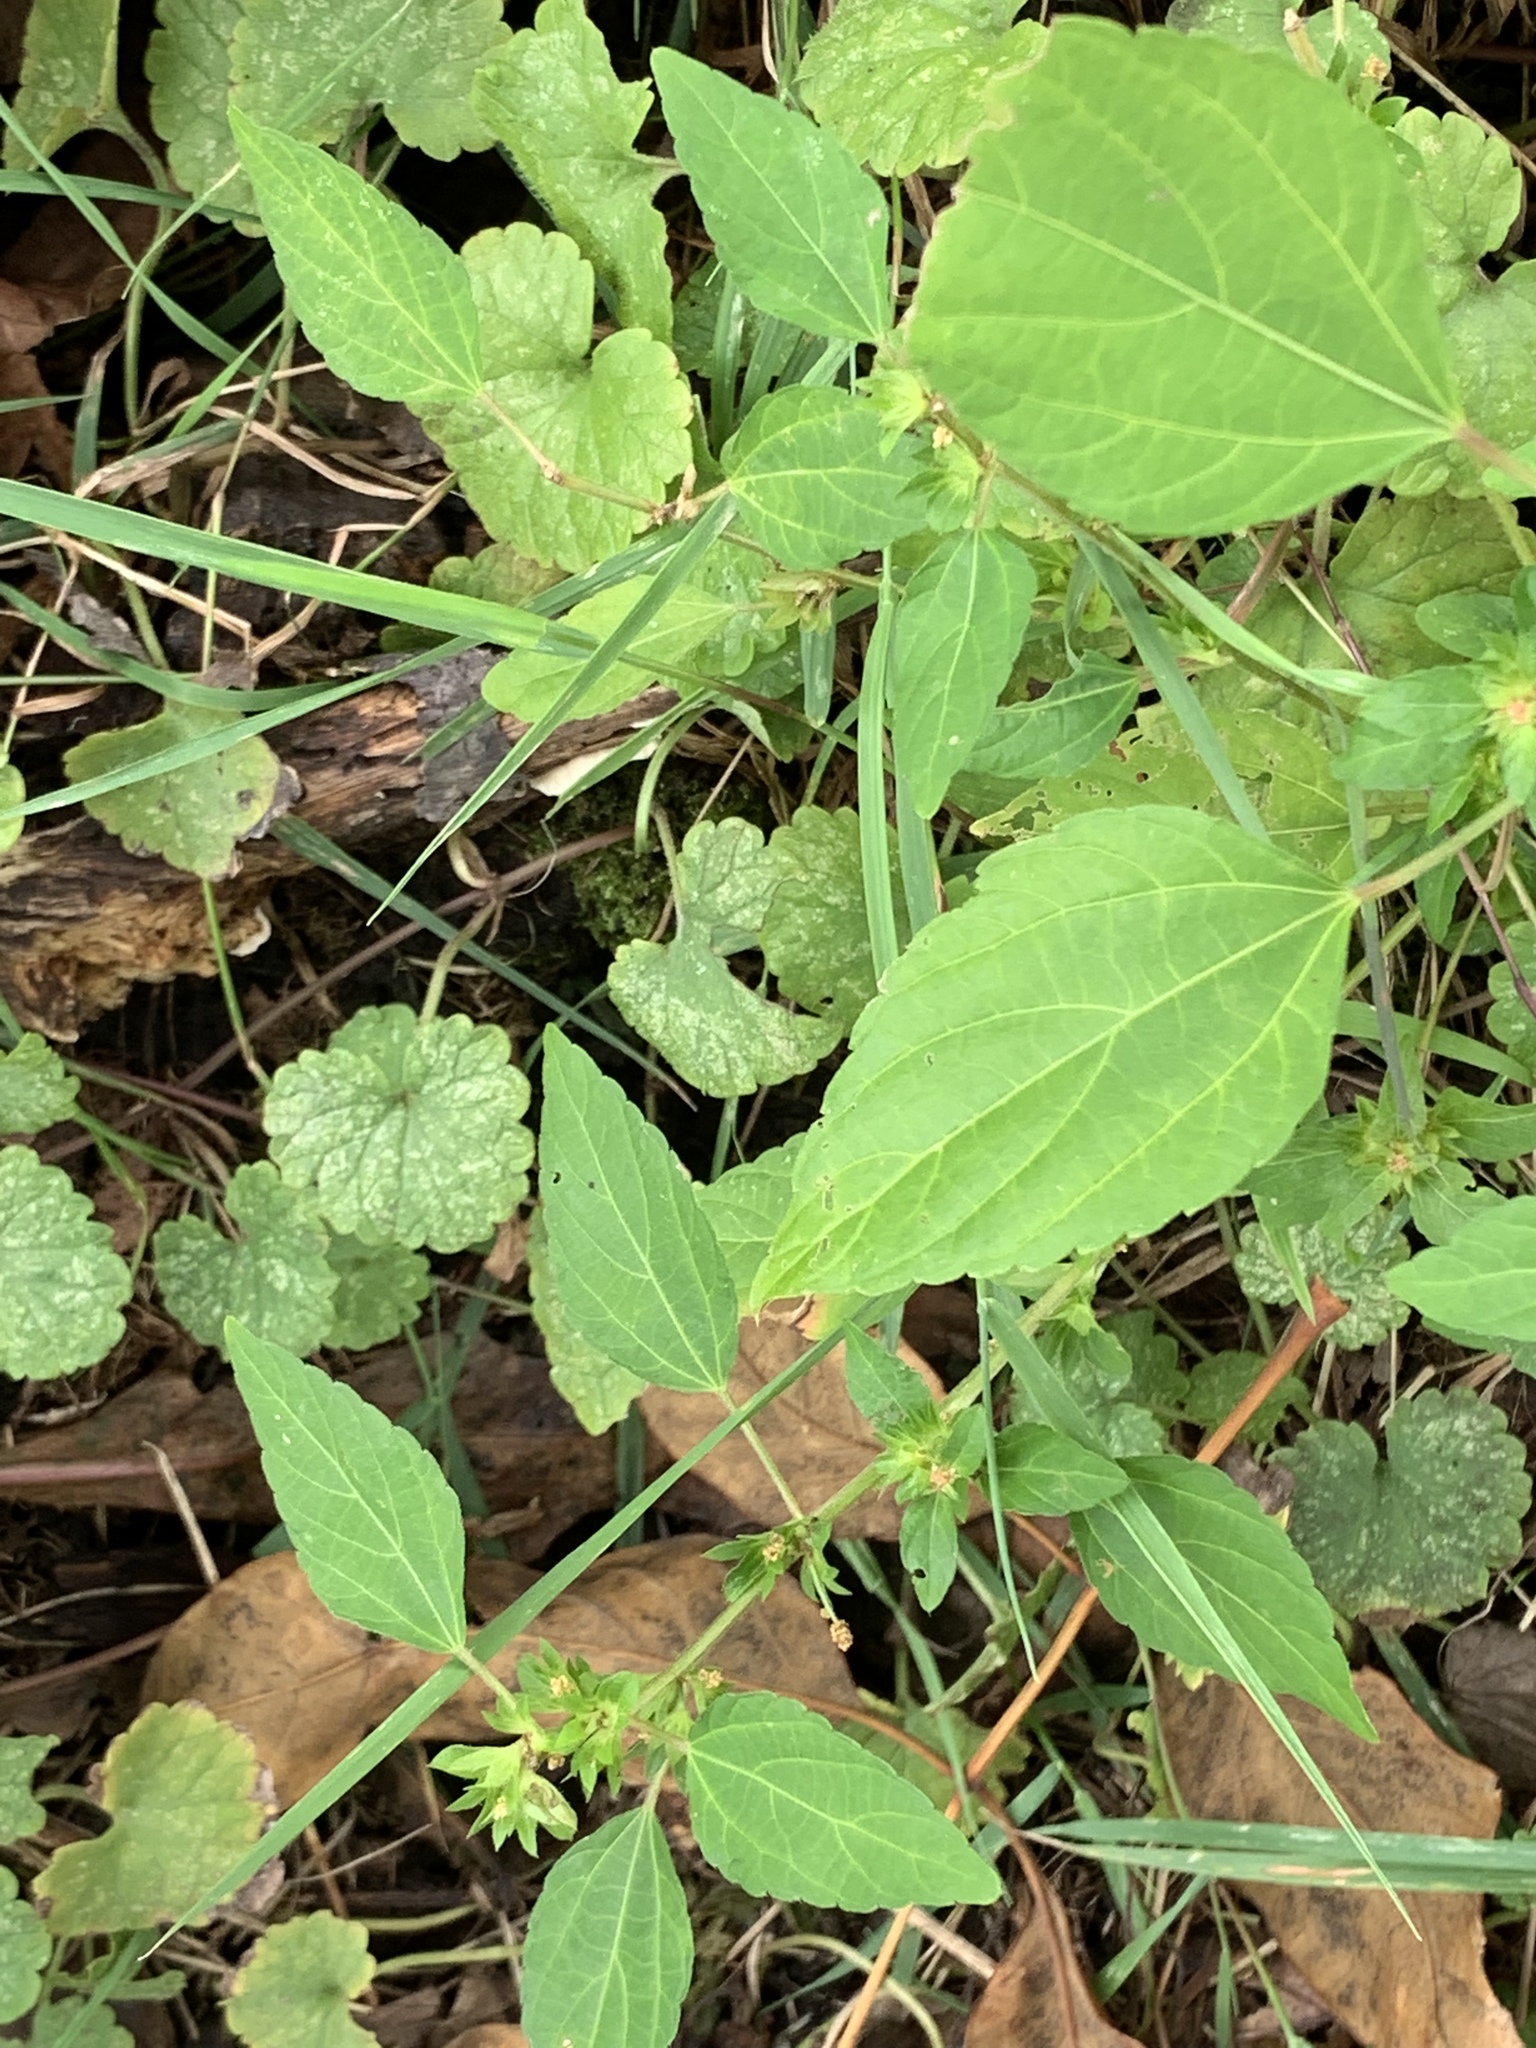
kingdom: Plantae
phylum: Tracheophyta
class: Magnoliopsida
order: Malpighiales
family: Euphorbiaceae
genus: Acalypha
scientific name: Acalypha rhomboidea
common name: Rhombic copperleaf
